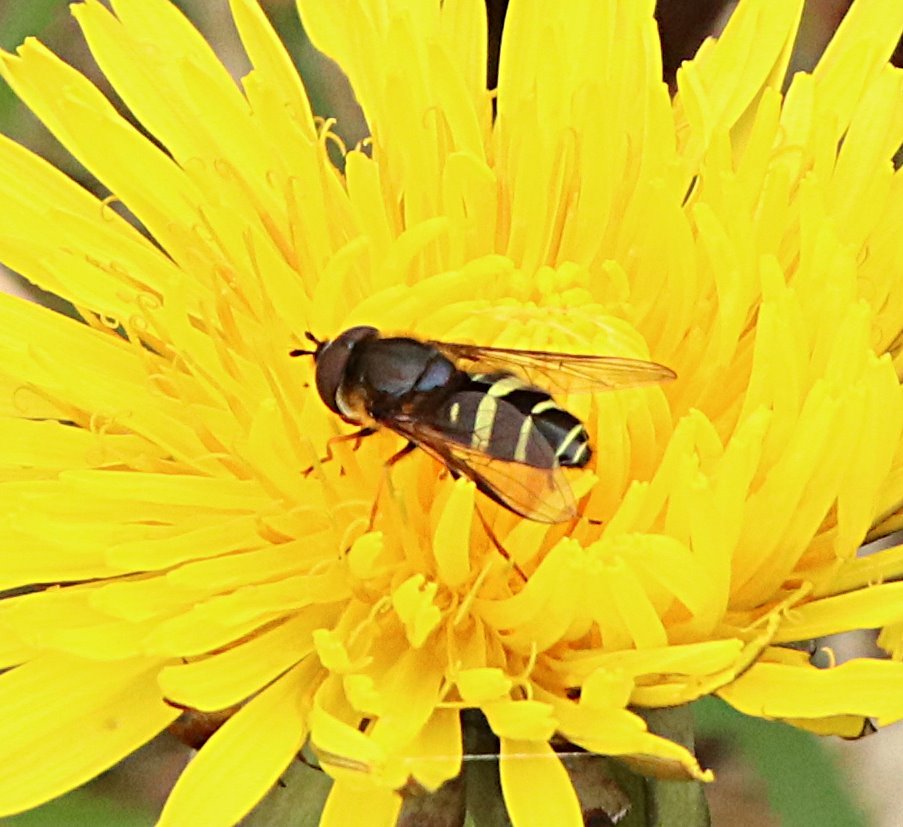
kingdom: Animalia
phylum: Arthropoda
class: Insecta
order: Diptera
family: Syrphidae
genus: Dasysyrphus
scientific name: Dasysyrphus tricinctus
